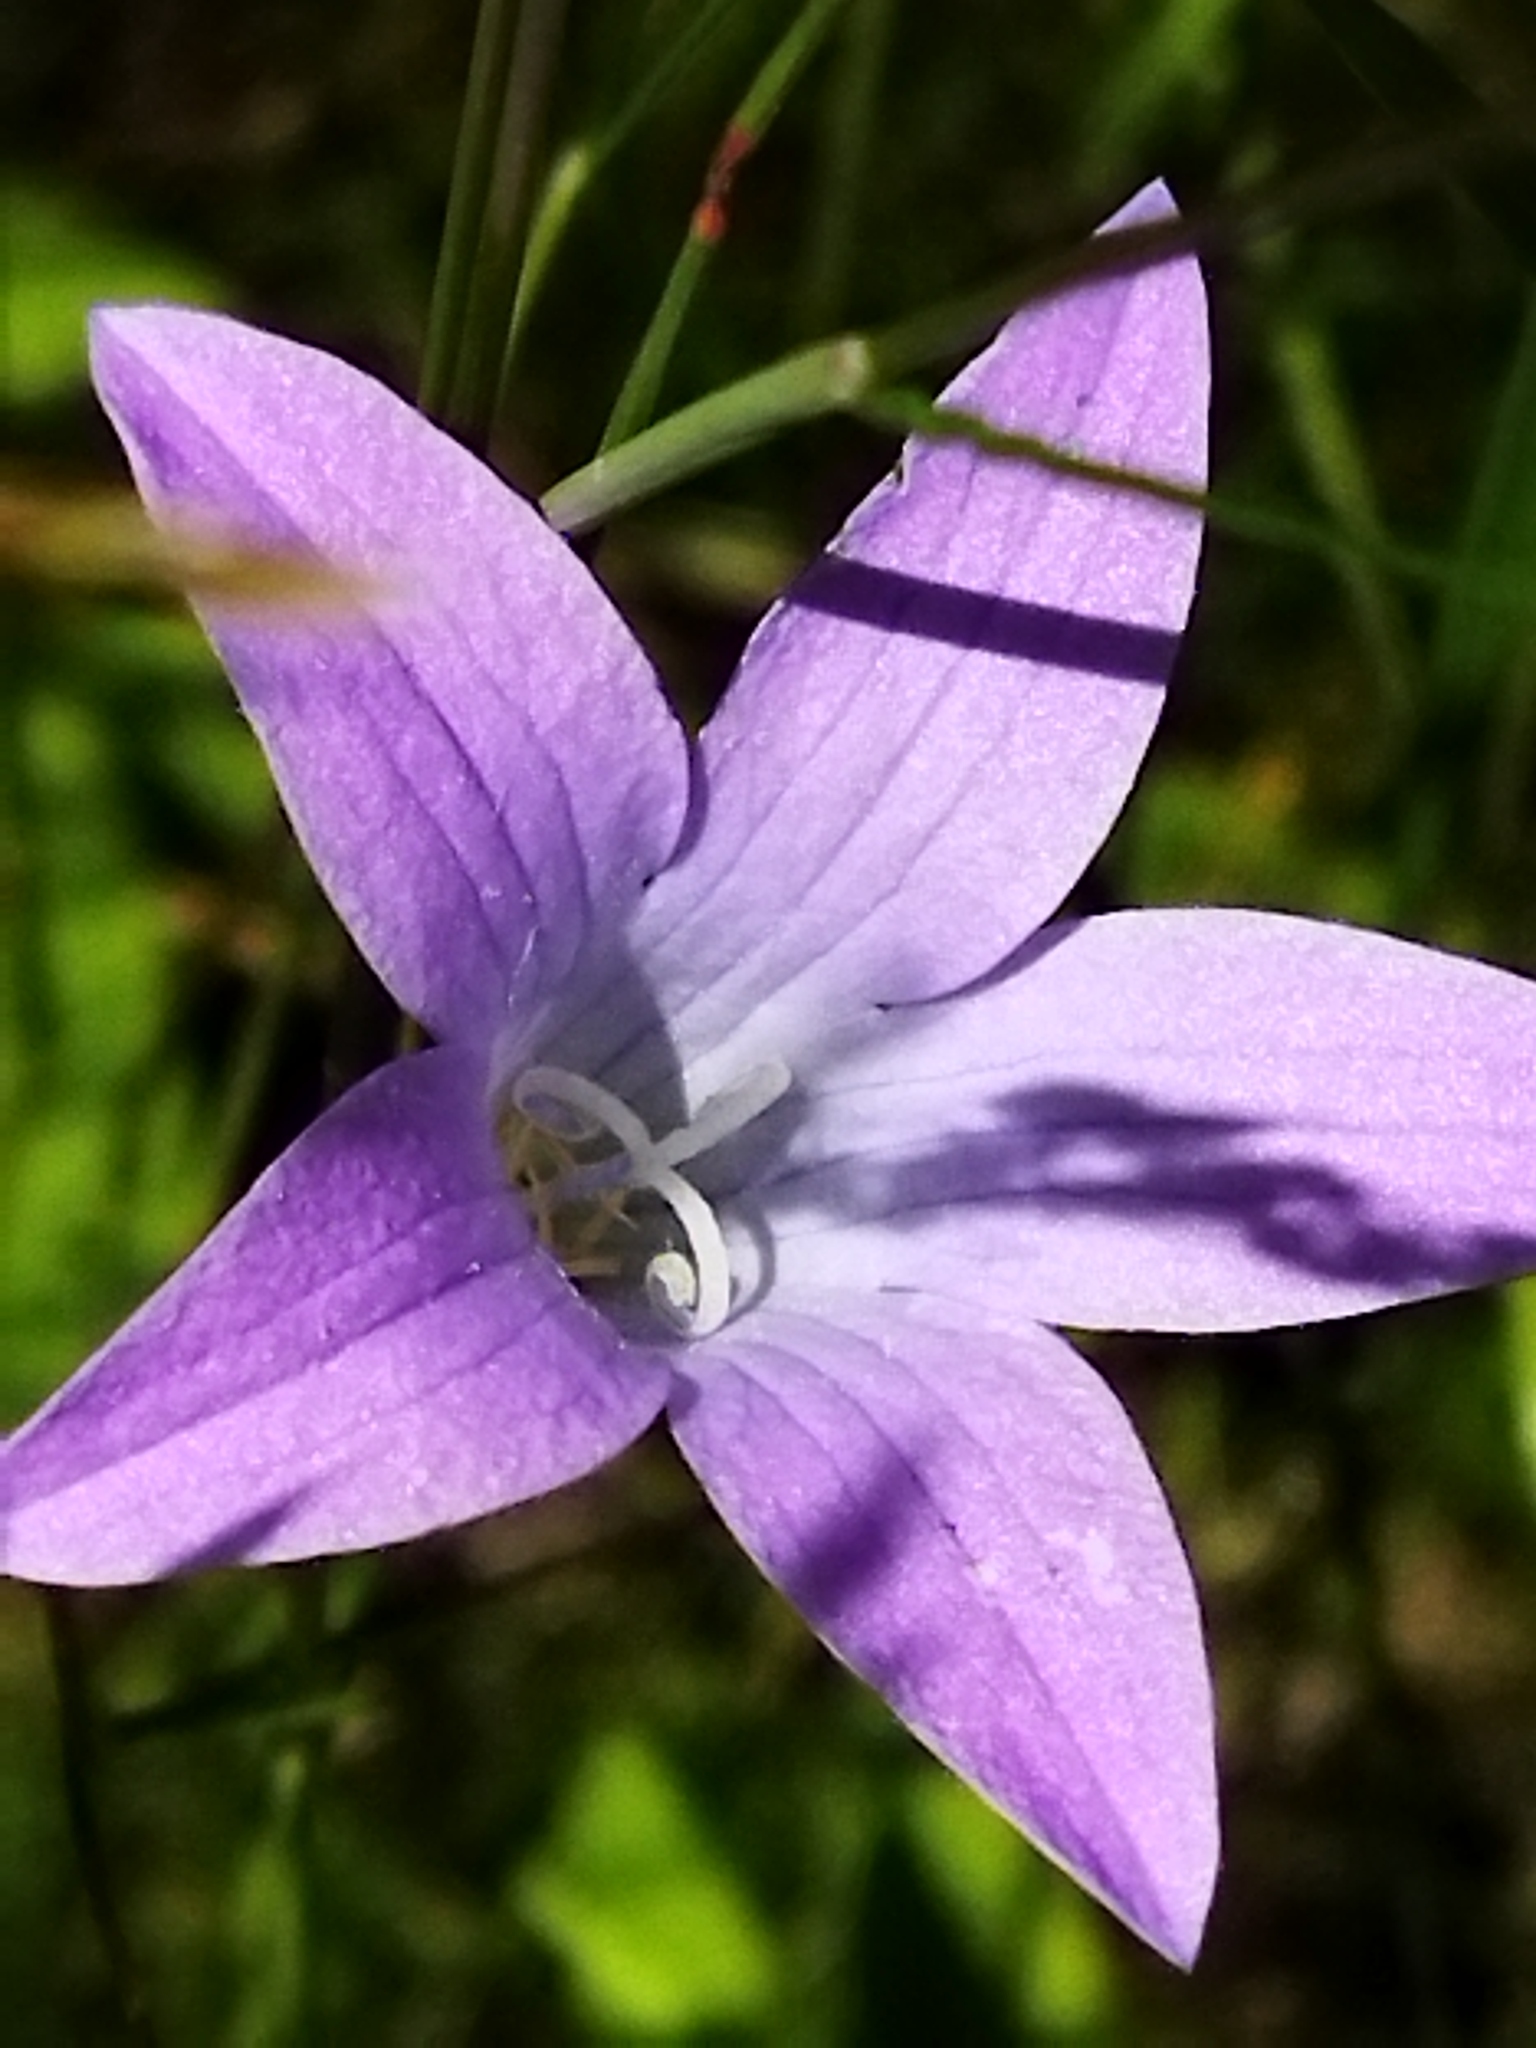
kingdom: Plantae
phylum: Tracheophyta
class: Magnoliopsida
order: Asterales
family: Campanulaceae
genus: Campanula
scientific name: Campanula patula
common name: Spreading bellflower
